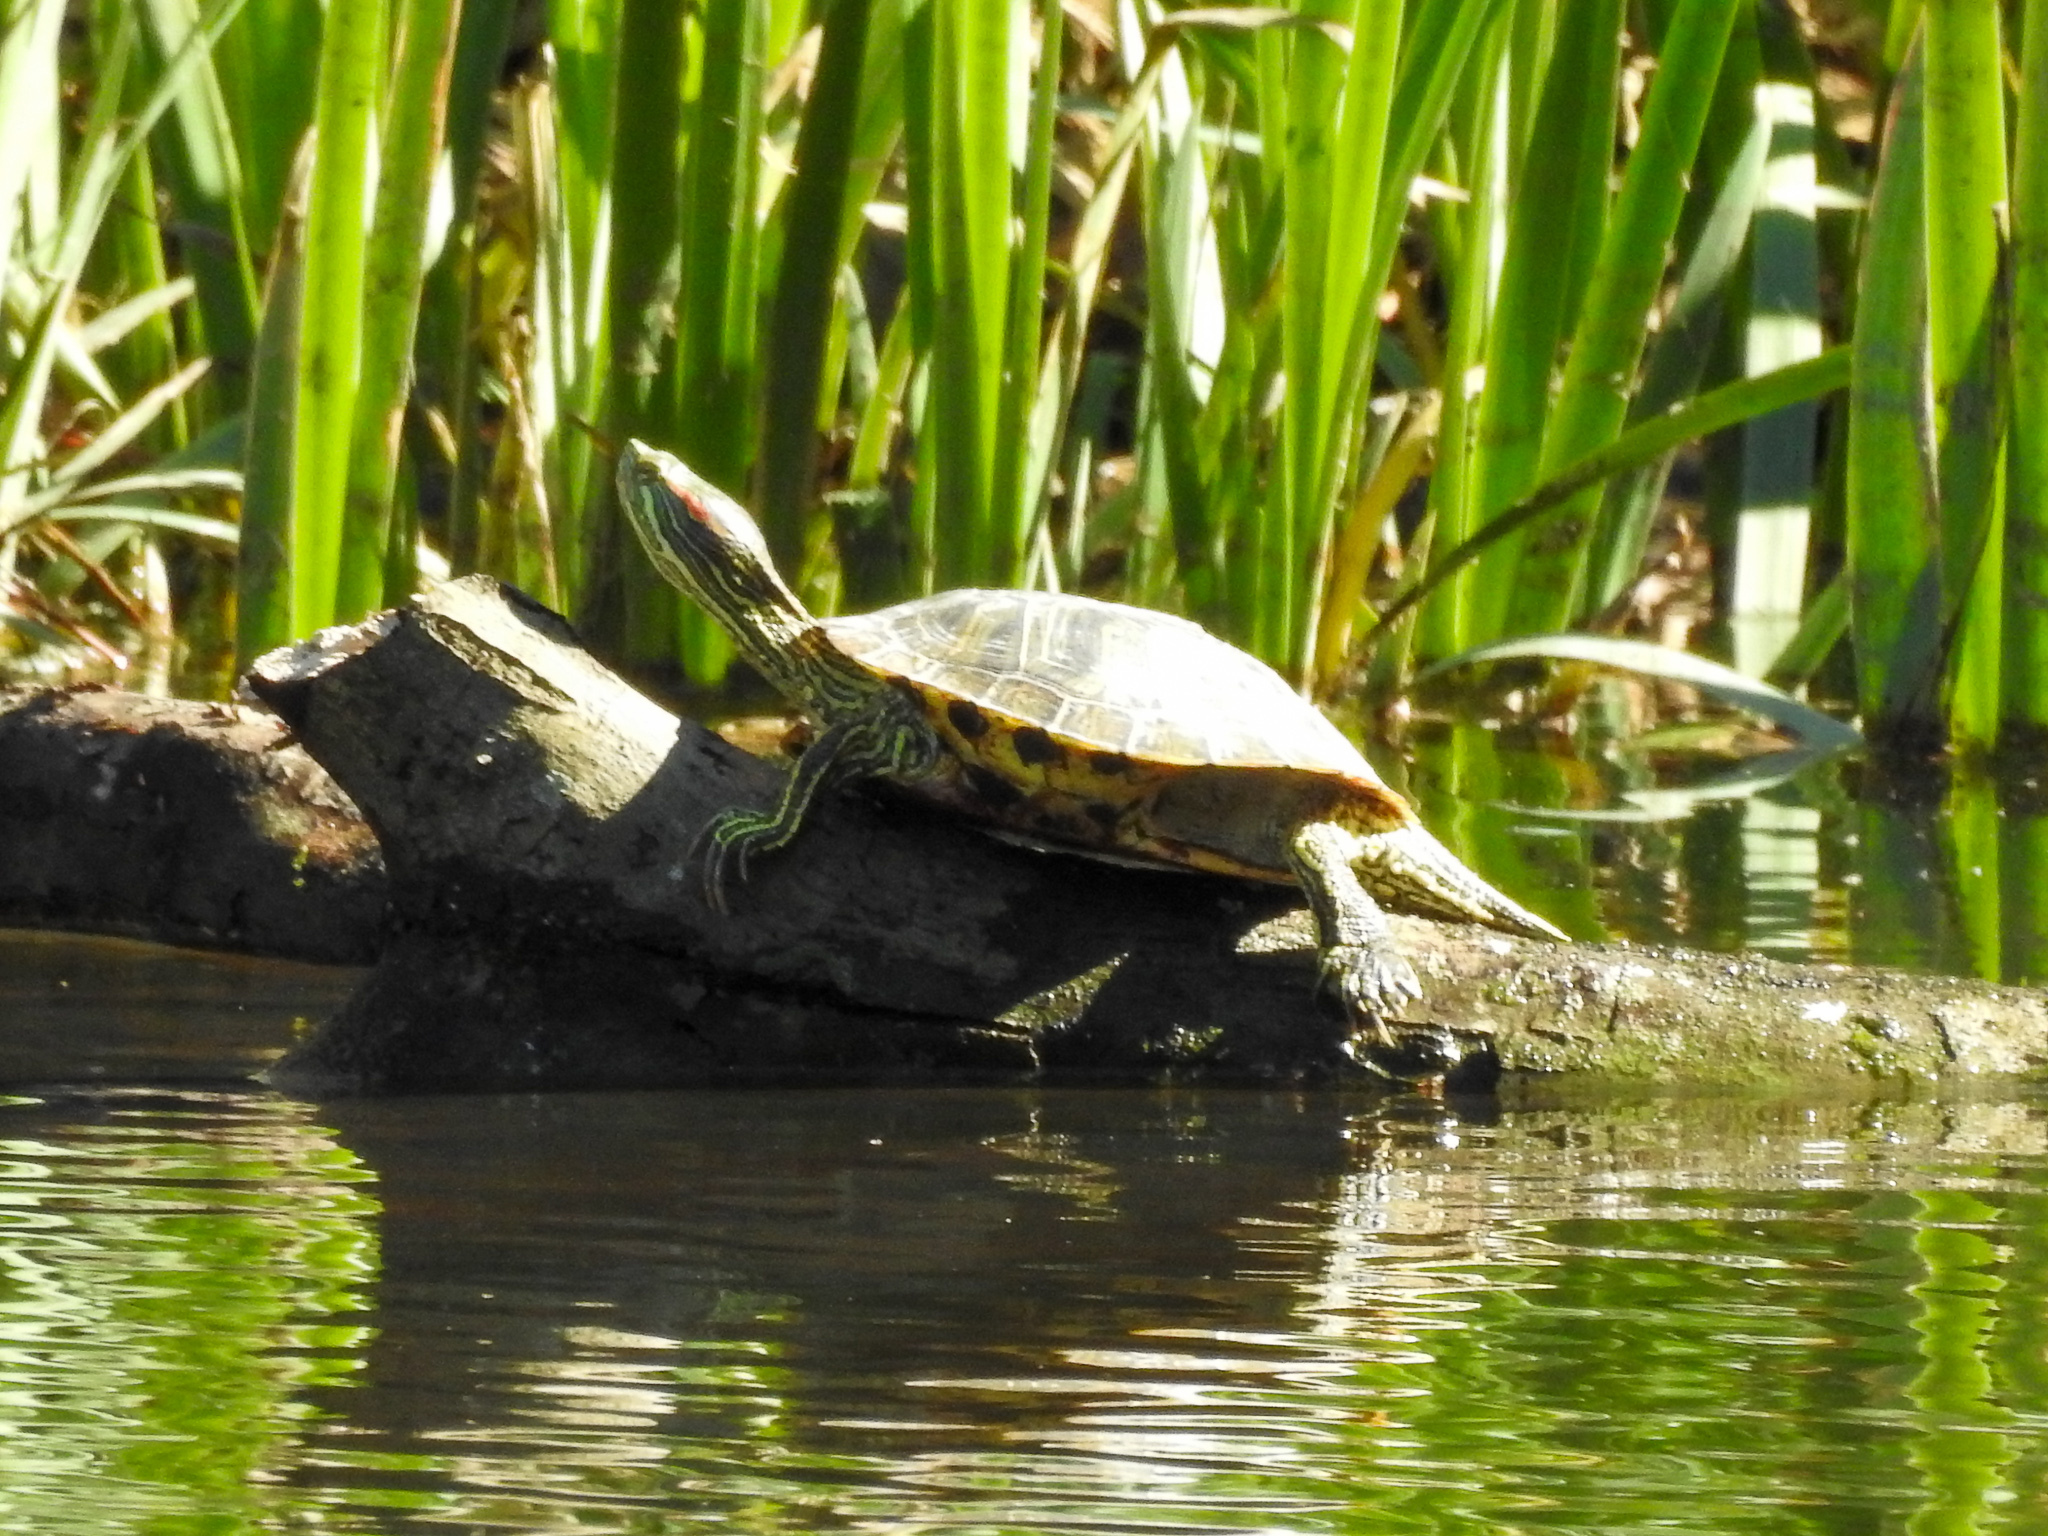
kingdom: Animalia
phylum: Chordata
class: Testudines
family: Emydidae
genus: Trachemys
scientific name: Trachemys scripta
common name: Slider
